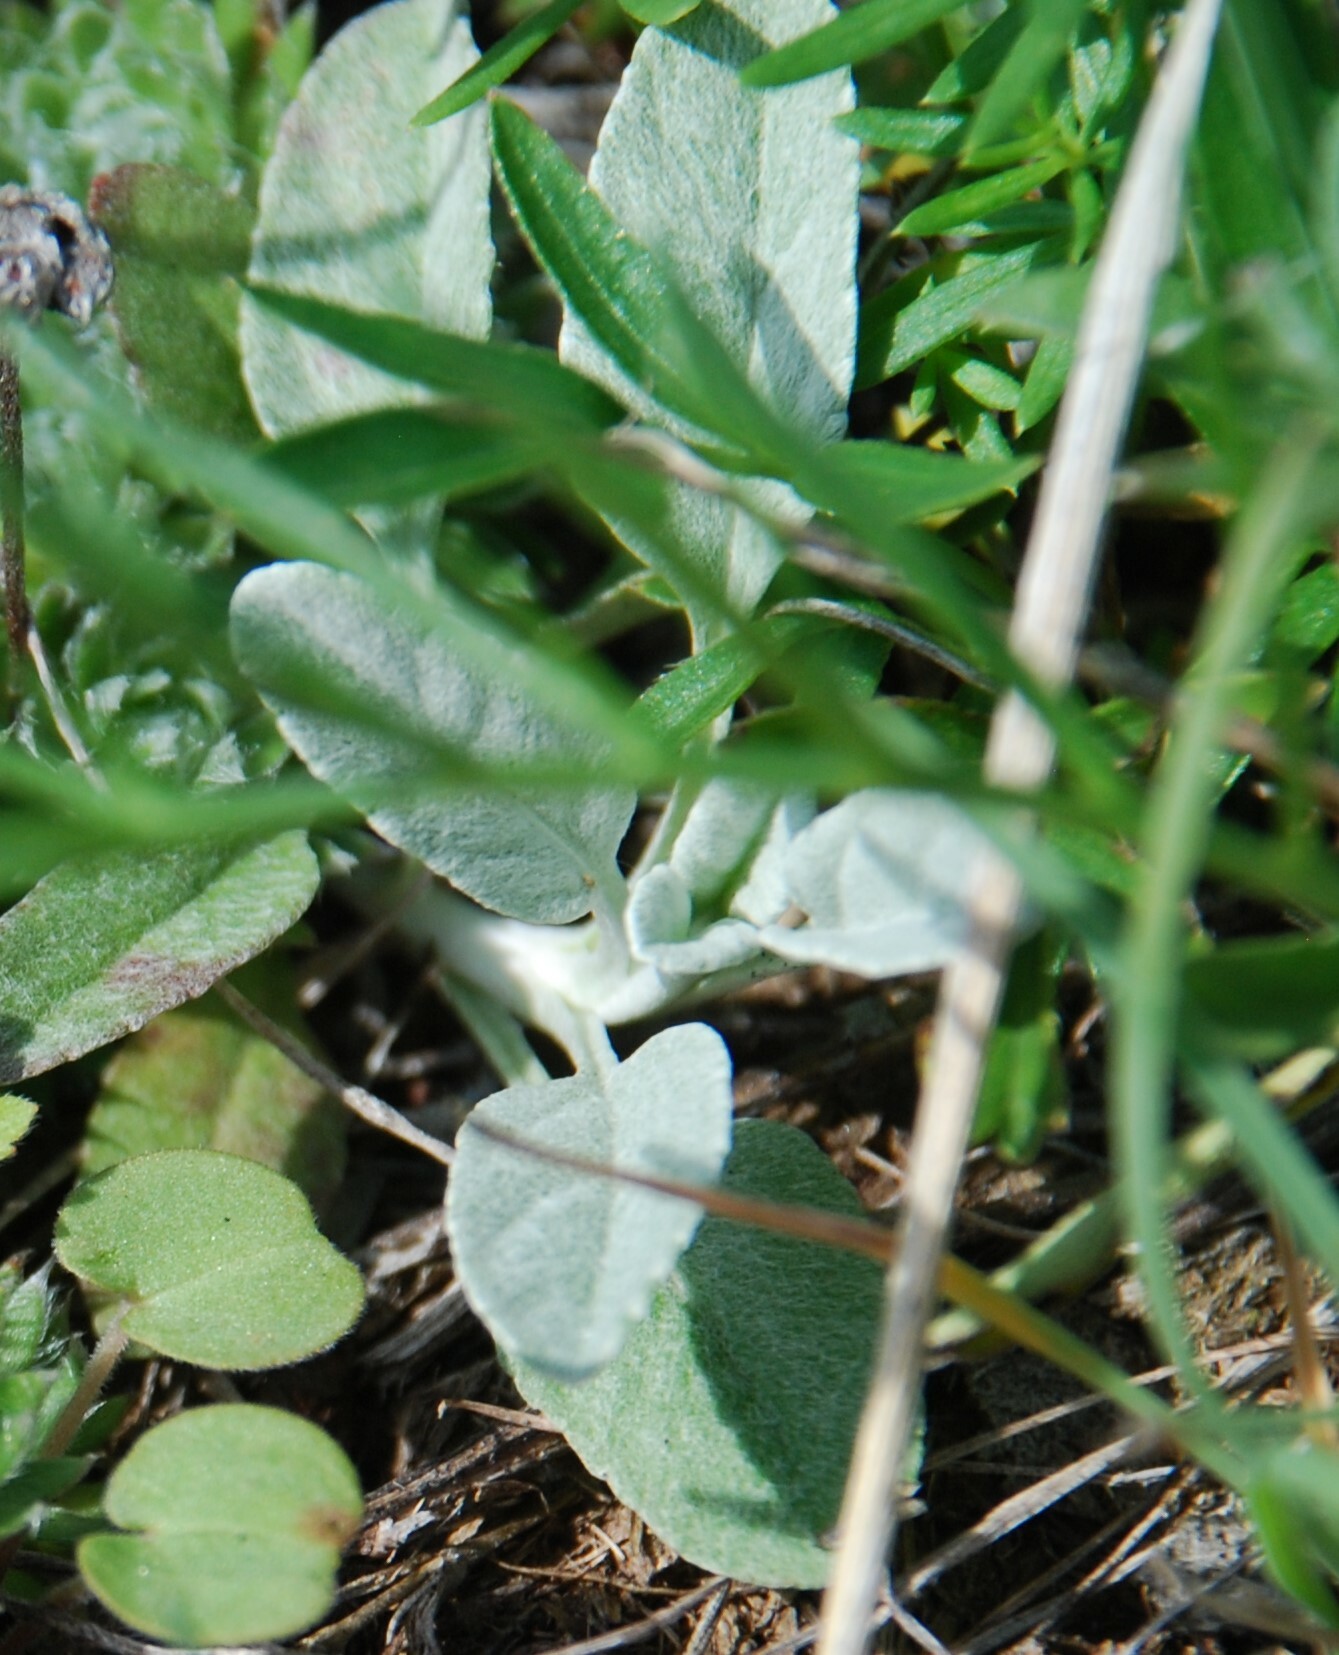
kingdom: Plantae
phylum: Tracheophyta
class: Magnoliopsida
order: Lamiales
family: Plantaginaceae
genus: Veronica
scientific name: Veronica incana
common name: Silver speedwell
